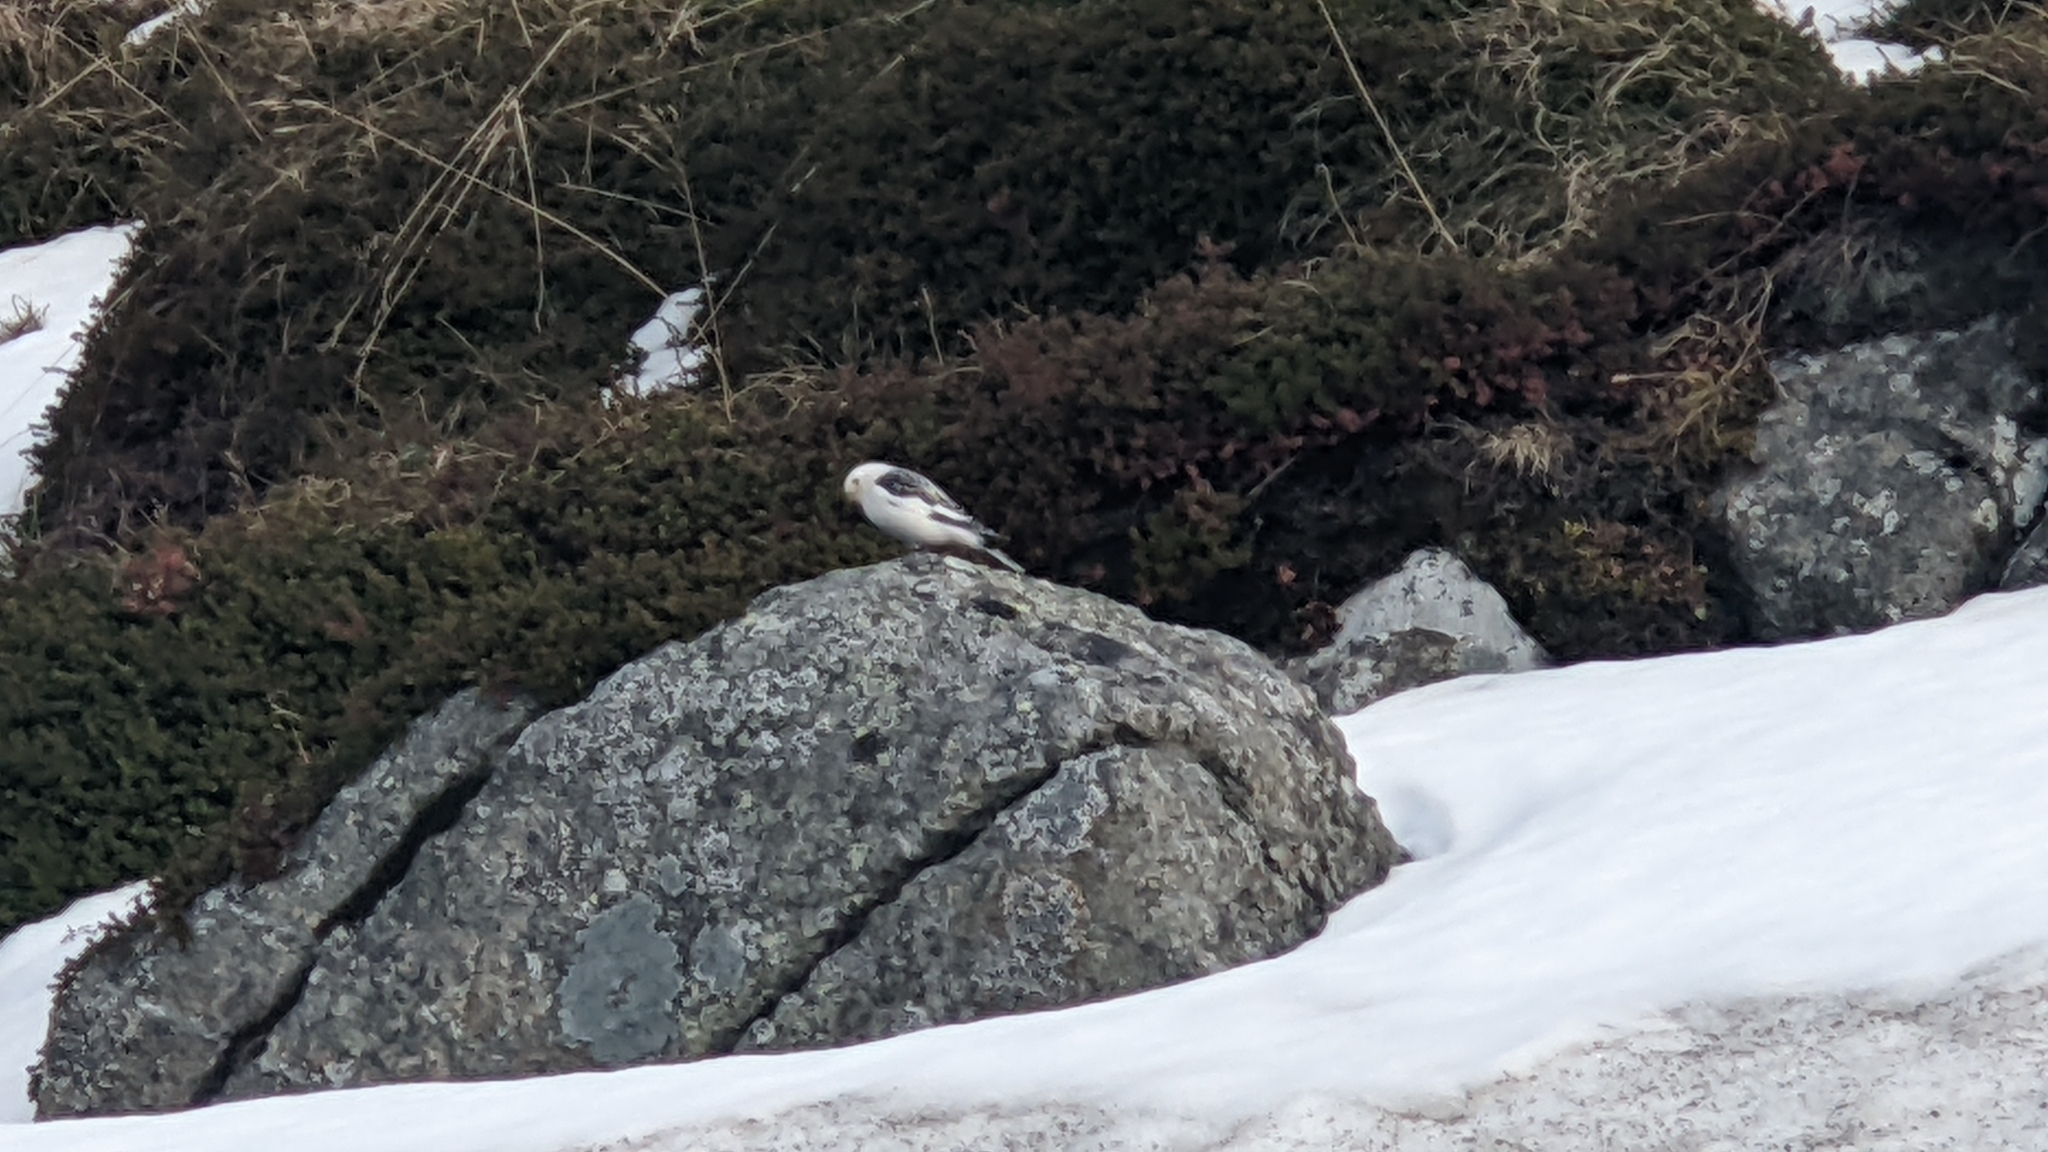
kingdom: Animalia
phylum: Chordata
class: Aves
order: Passeriformes
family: Calcariidae
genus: Plectrophenax
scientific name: Plectrophenax nivalis
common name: Snow bunting
